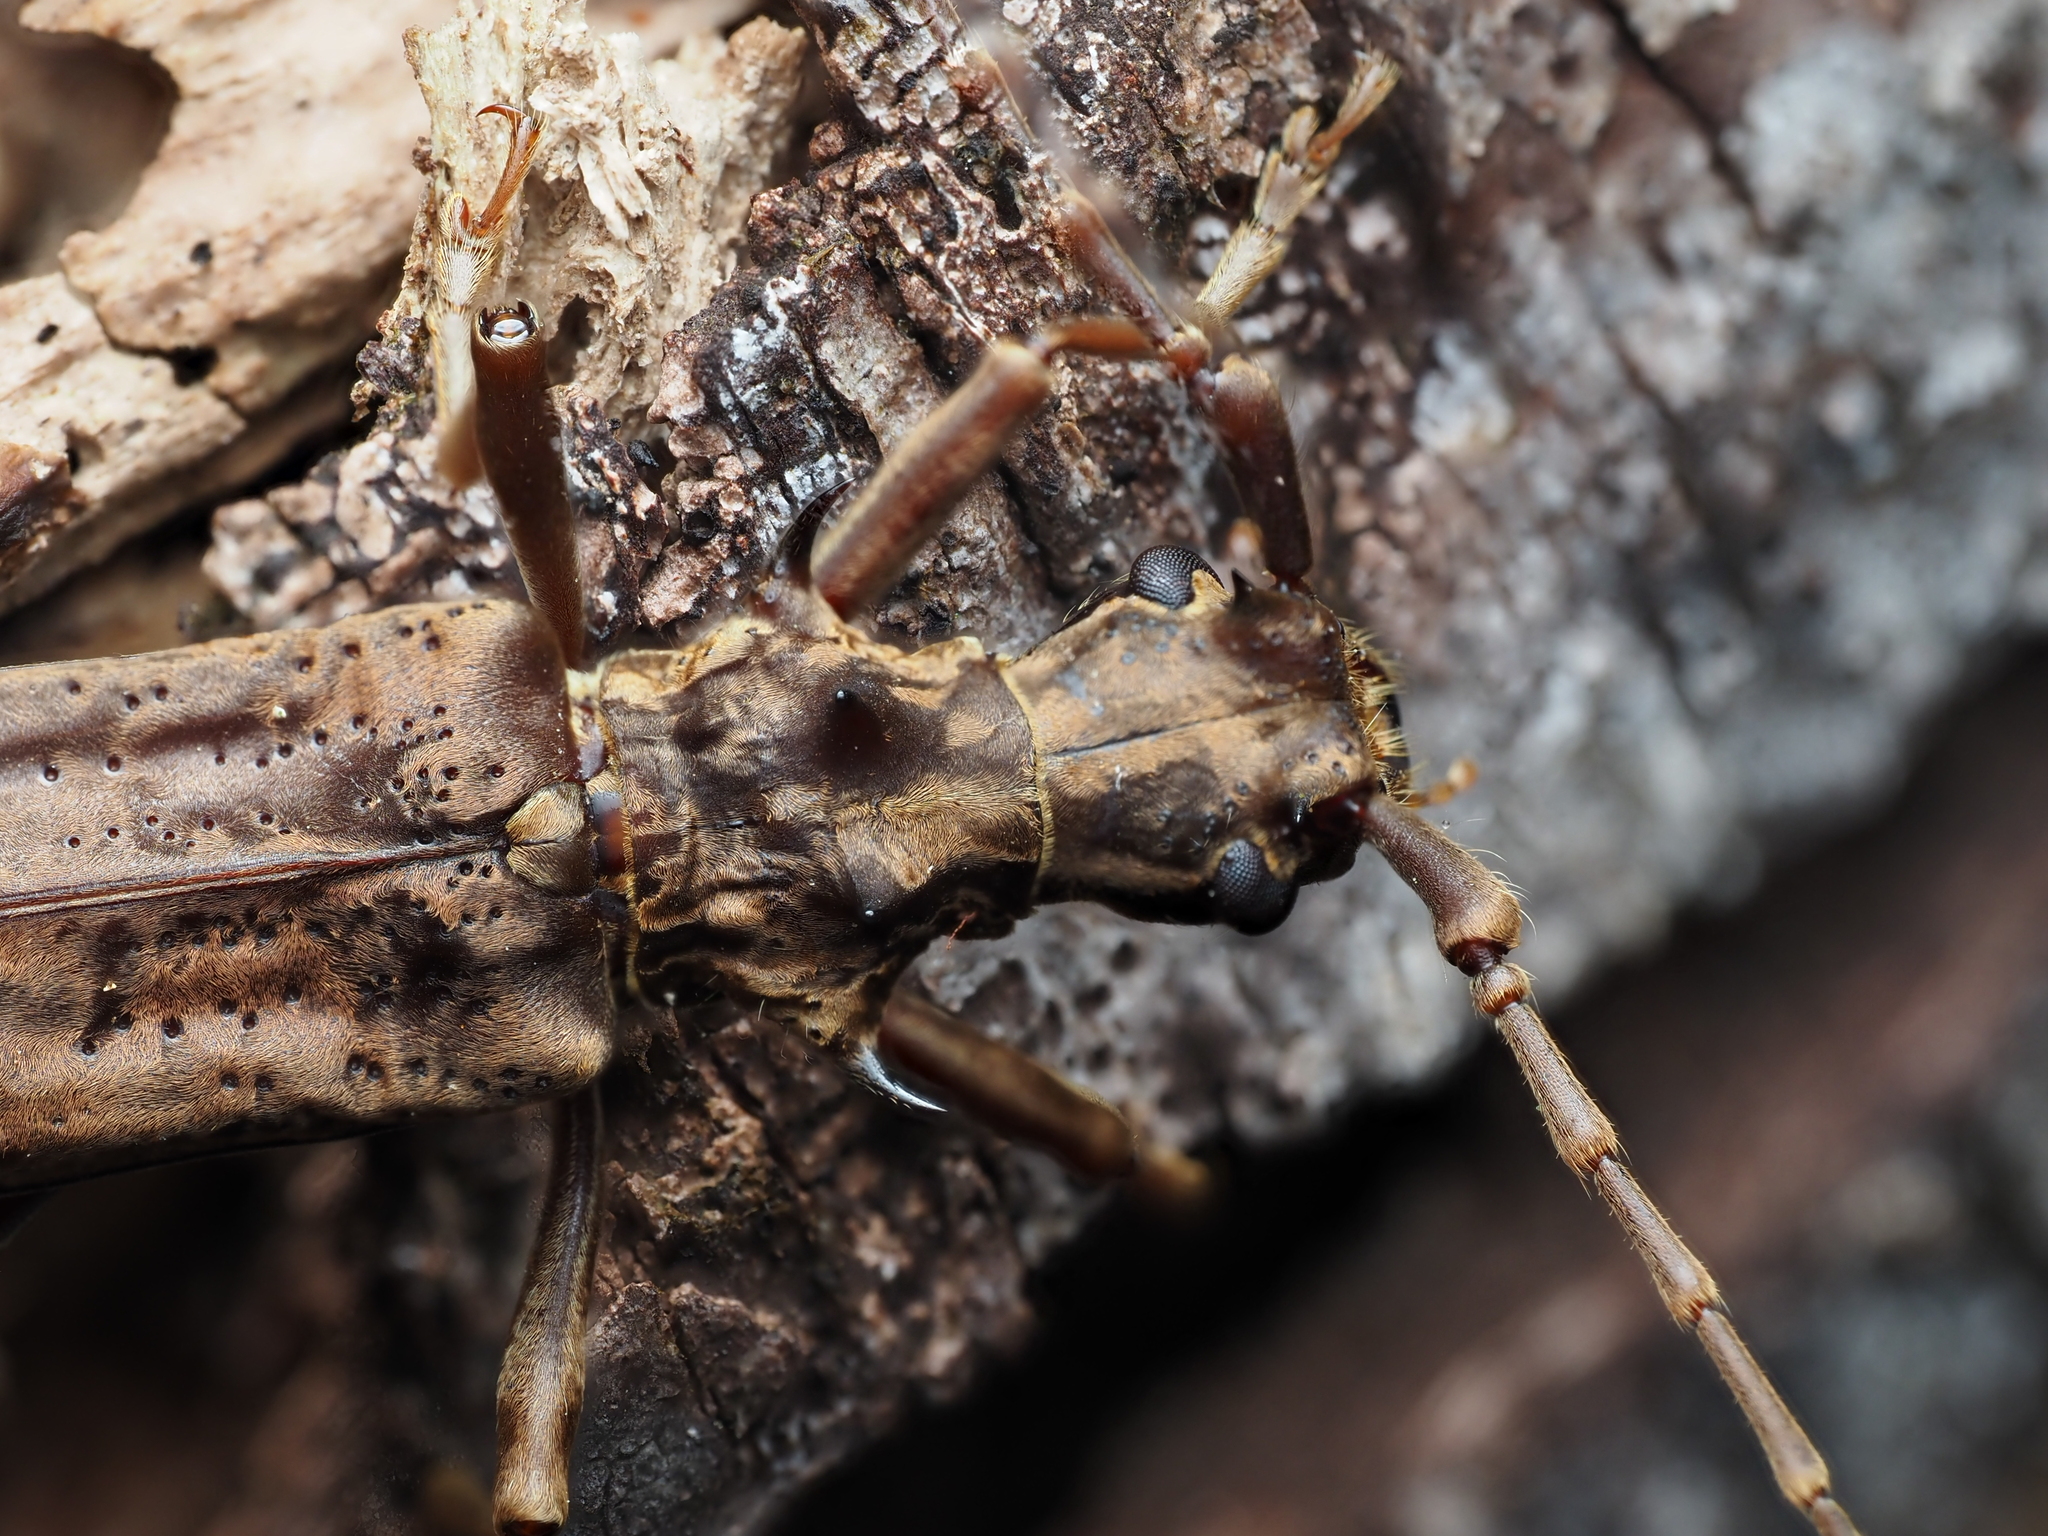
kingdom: Animalia
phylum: Arthropoda
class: Insecta
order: Coleoptera
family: Cerambycidae
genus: Blosyropus
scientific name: Blosyropus spinosus
